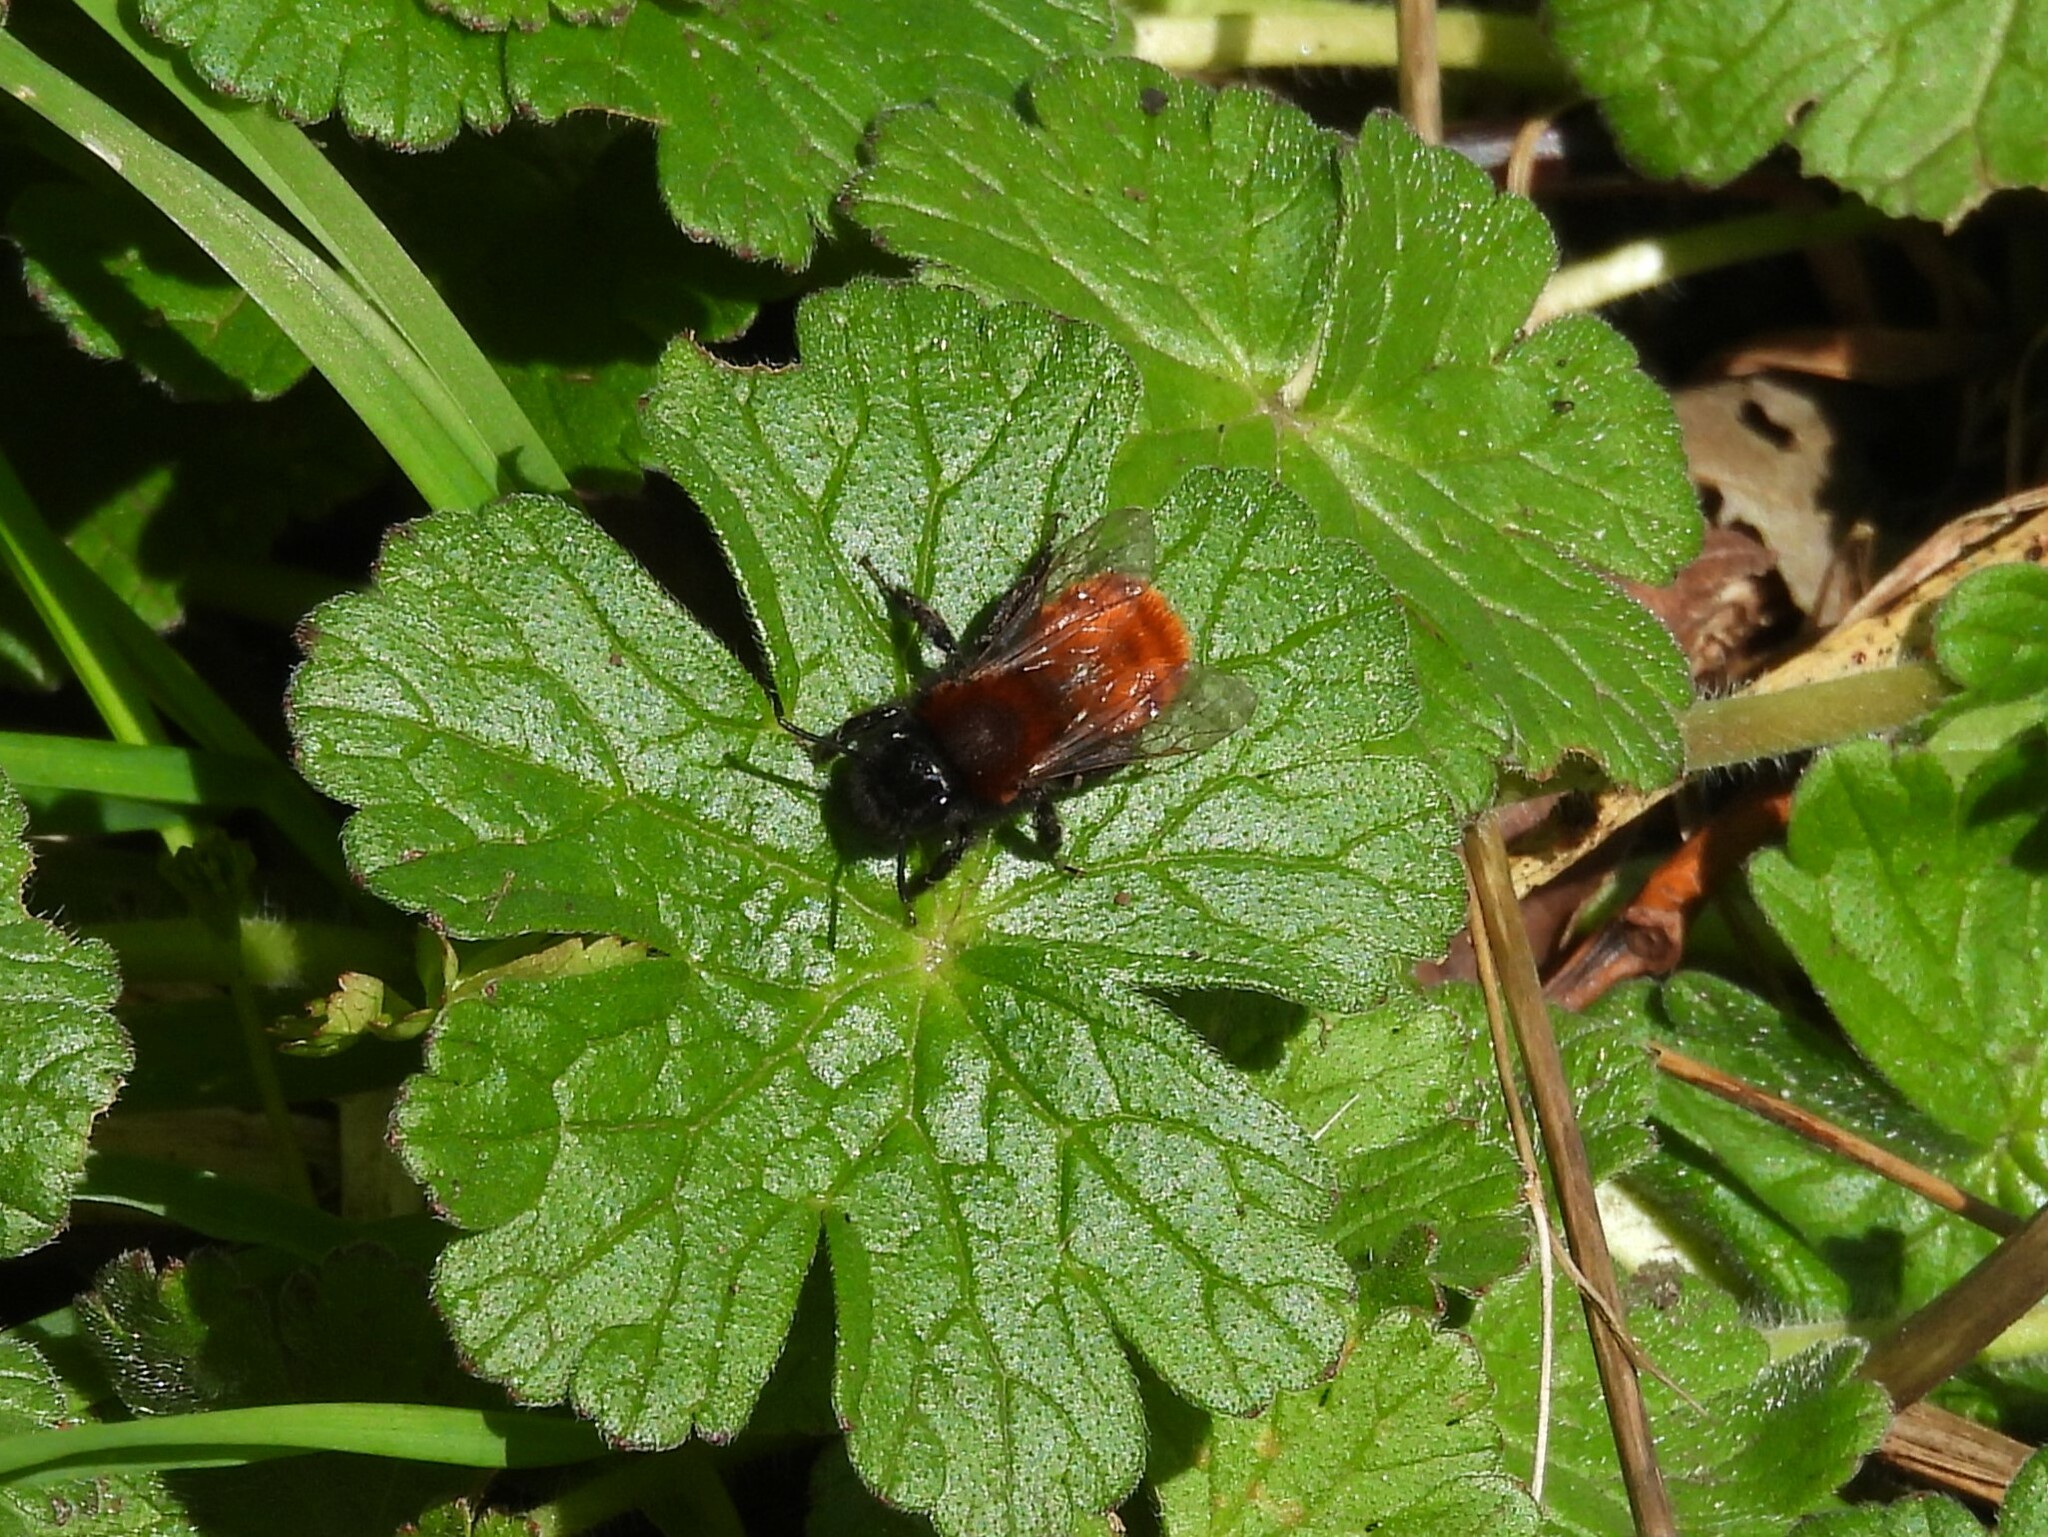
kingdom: Animalia
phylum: Arthropoda
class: Insecta
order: Hymenoptera
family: Andrenidae
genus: Andrena
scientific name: Andrena fulva
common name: Tawny mining bee
